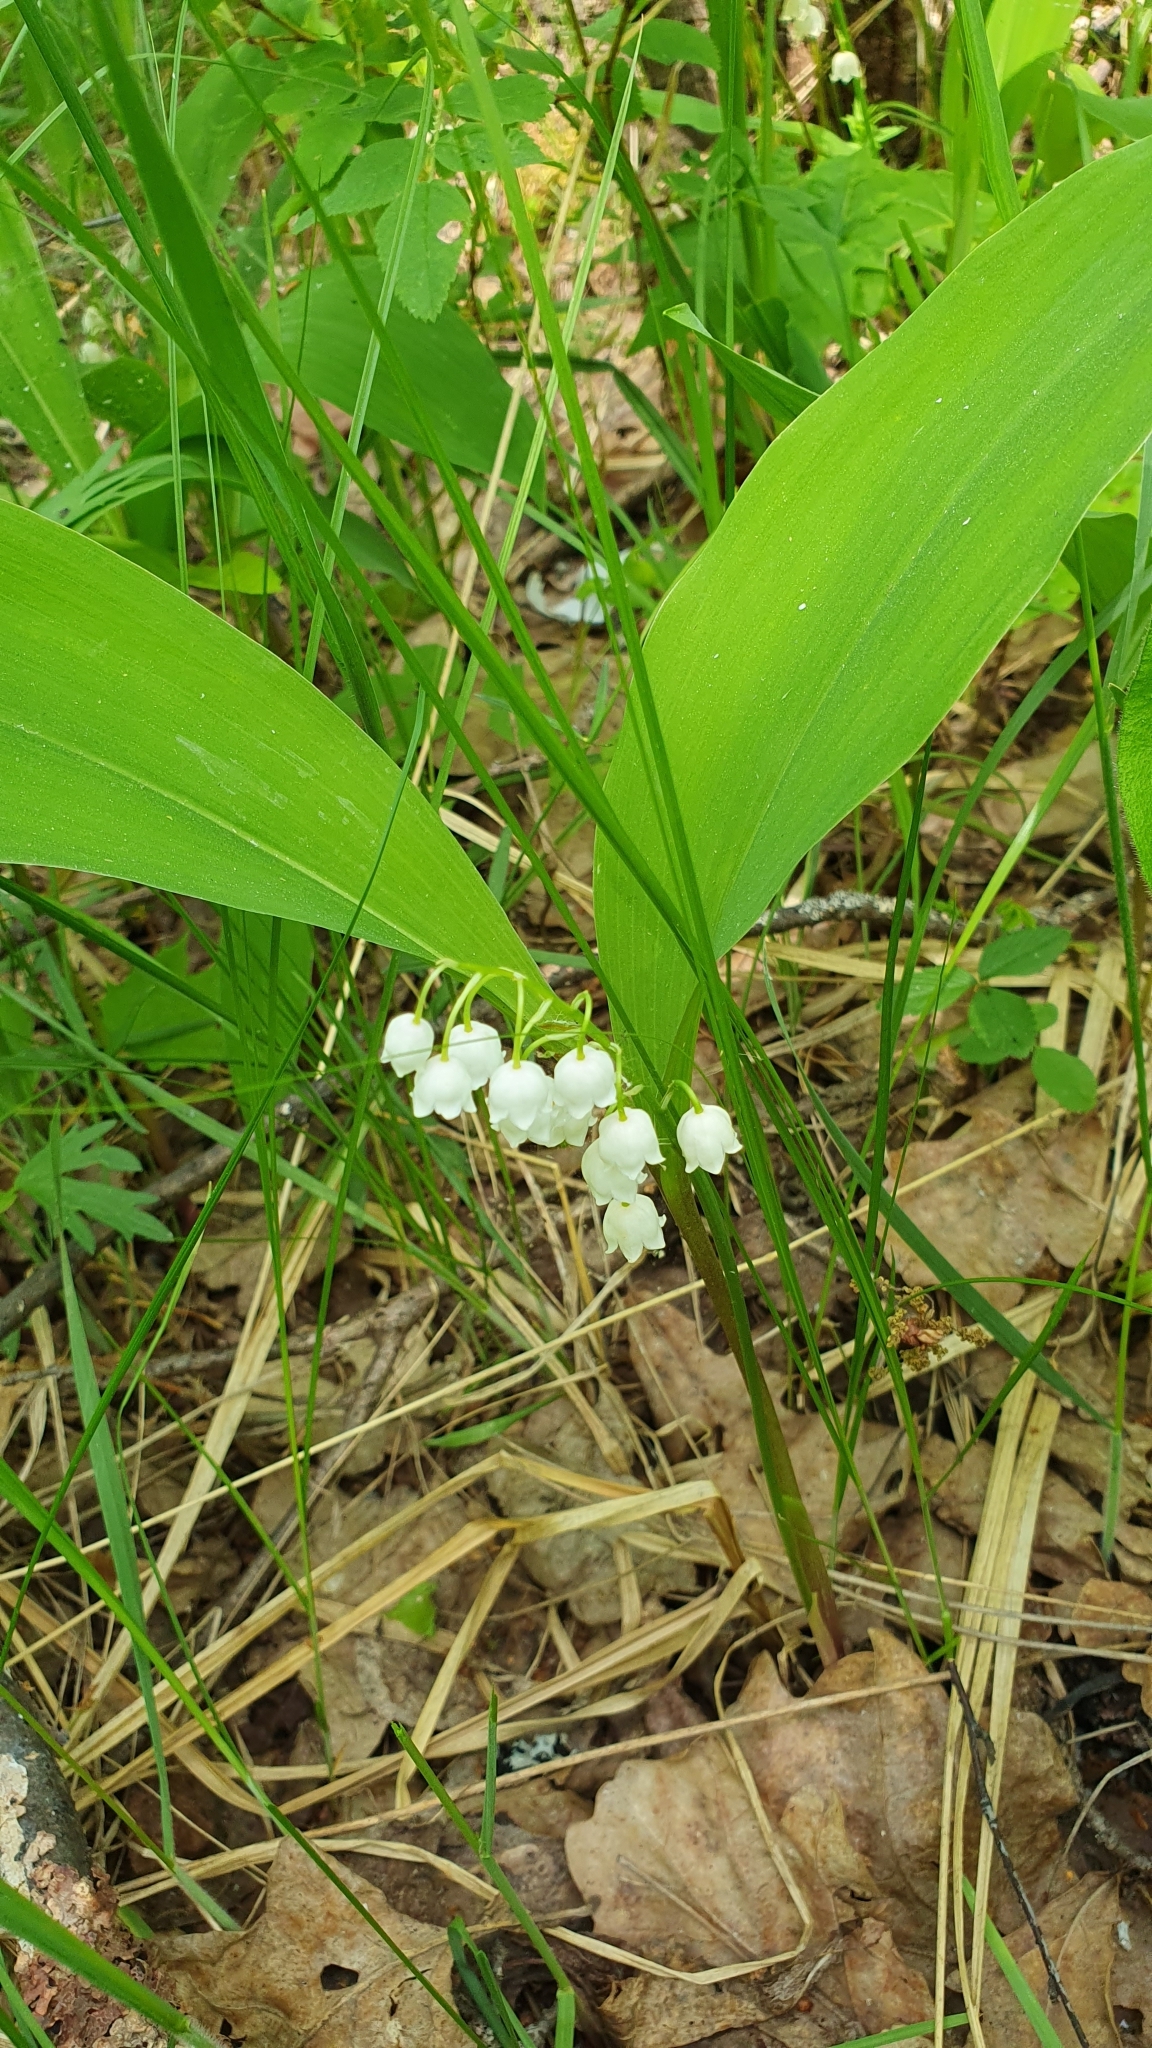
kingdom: Plantae
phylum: Tracheophyta
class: Liliopsida
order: Asparagales
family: Asparagaceae
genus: Convallaria
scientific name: Convallaria majalis
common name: Lily-of-the-valley
